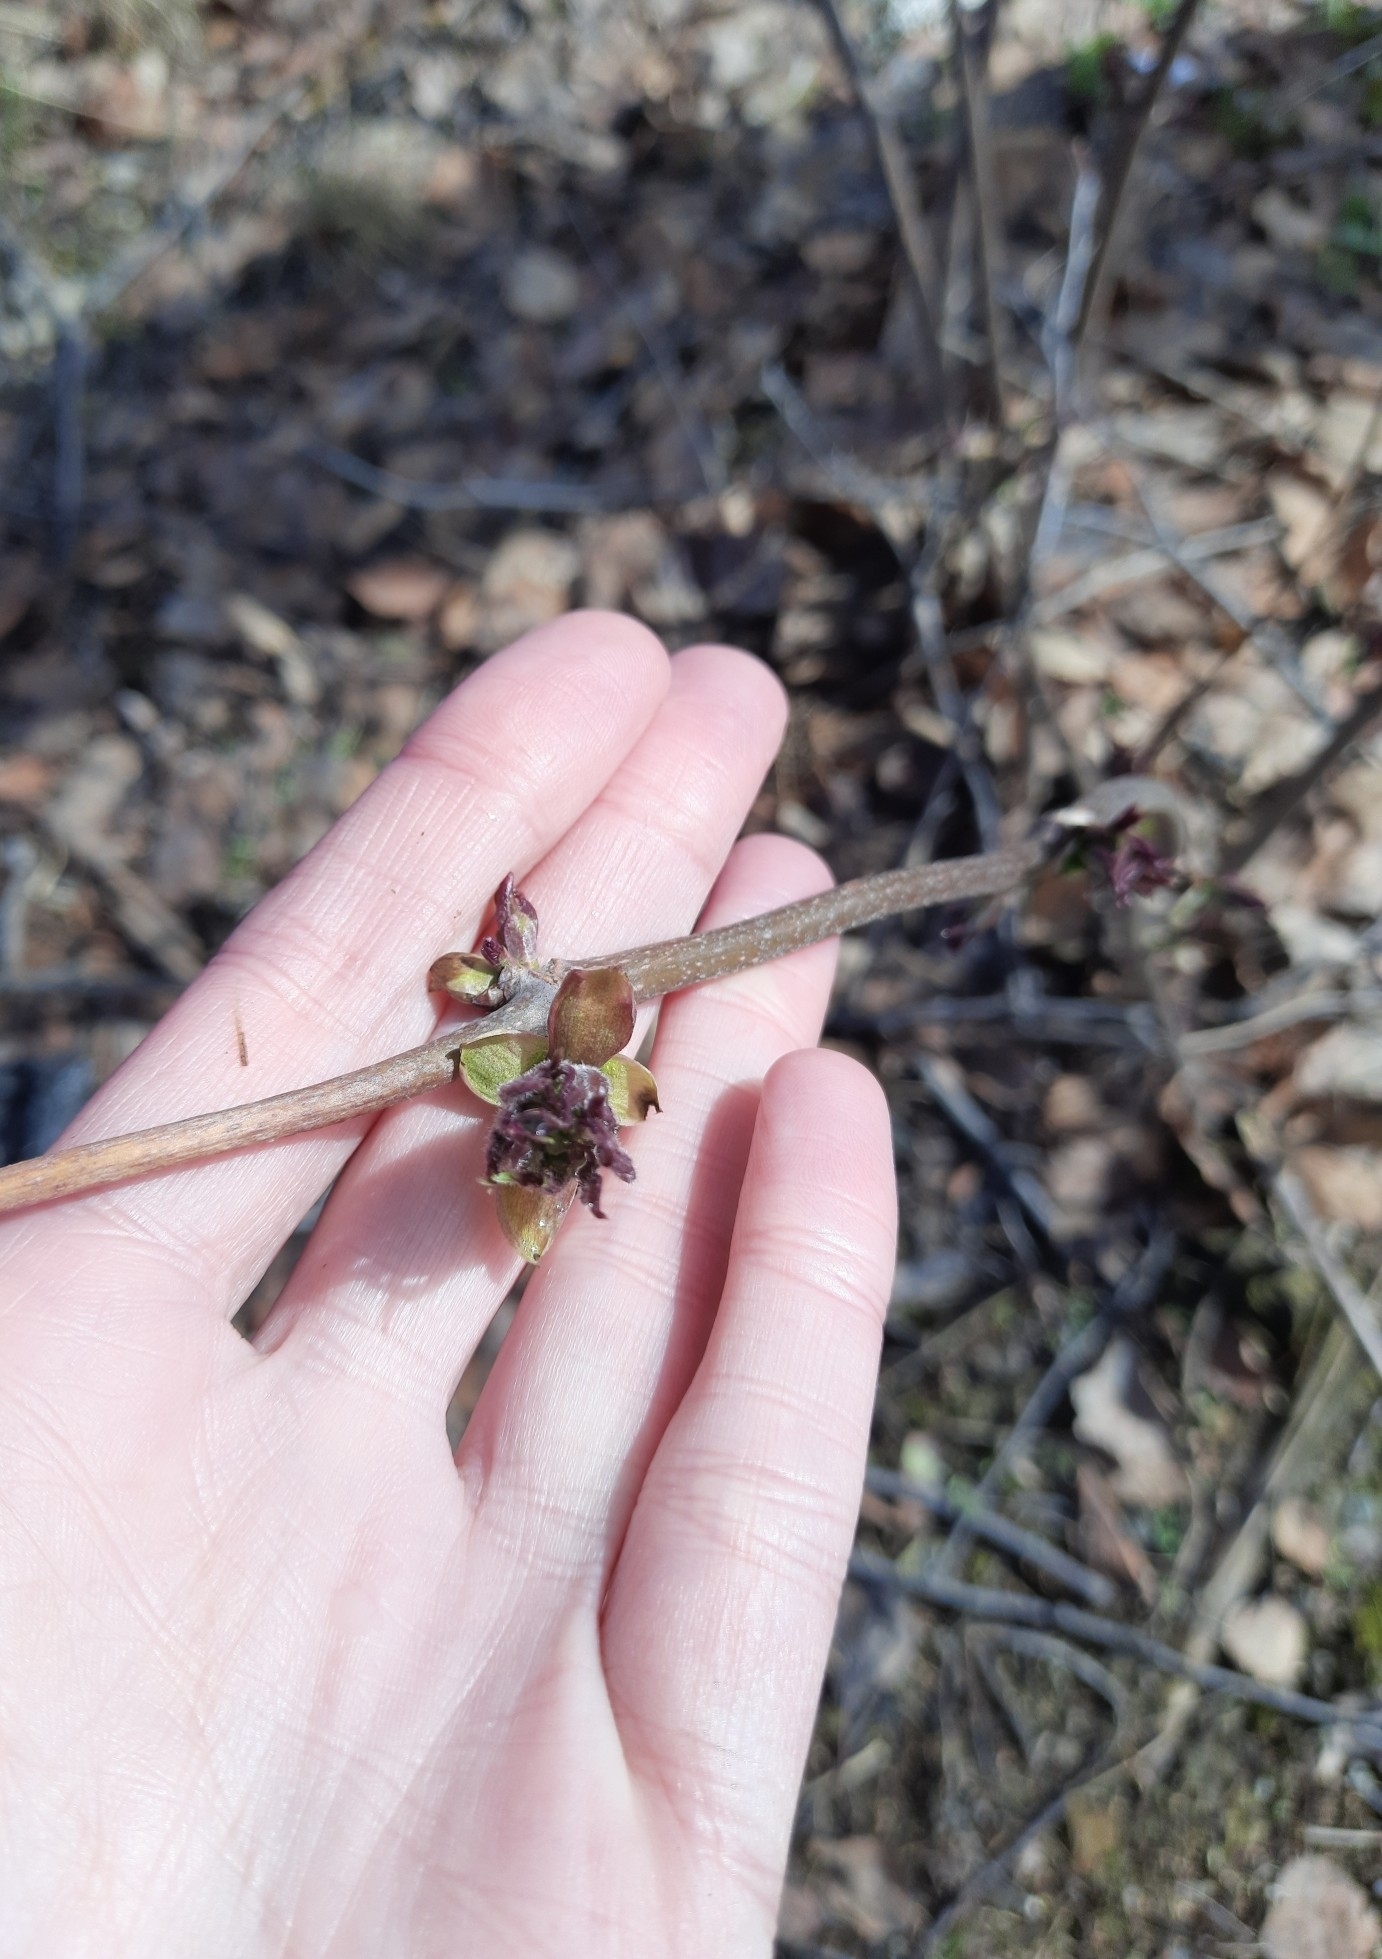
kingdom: Plantae
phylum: Tracheophyta
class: Magnoliopsida
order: Dipsacales
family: Viburnaceae
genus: Sambucus
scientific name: Sambucus sibirica
